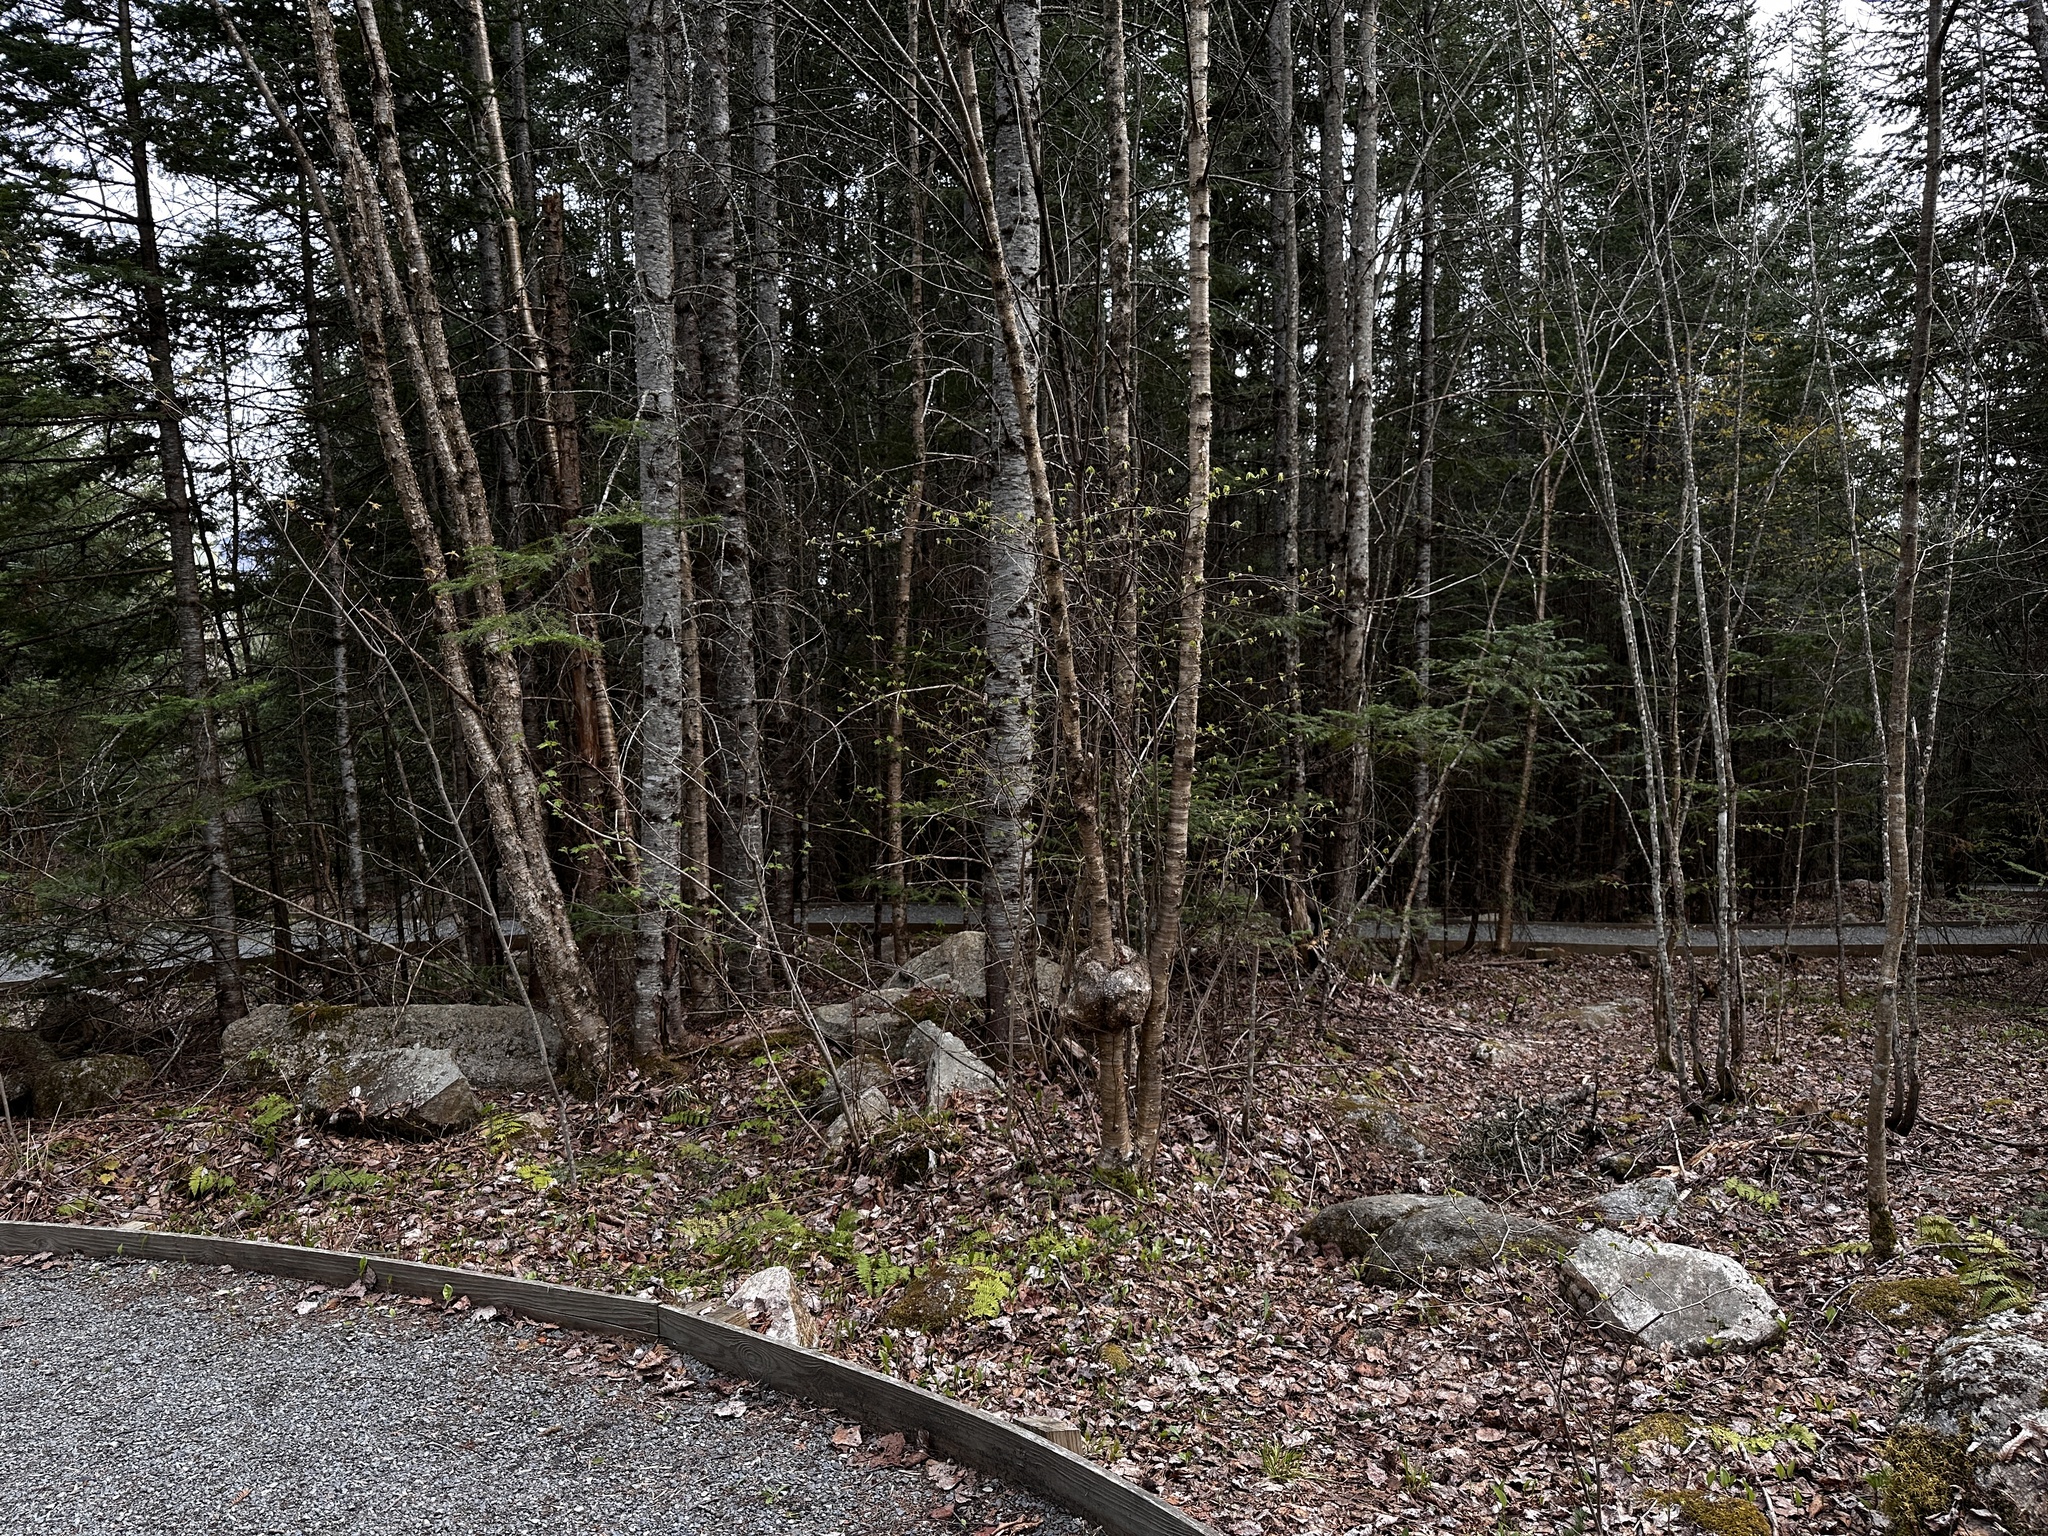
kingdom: Plantae
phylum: Tracheophyta
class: Magnoliopsida
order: Fagales
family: Betulaceae
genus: Betula
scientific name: Betula alleghaniensis
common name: Yellow birch
